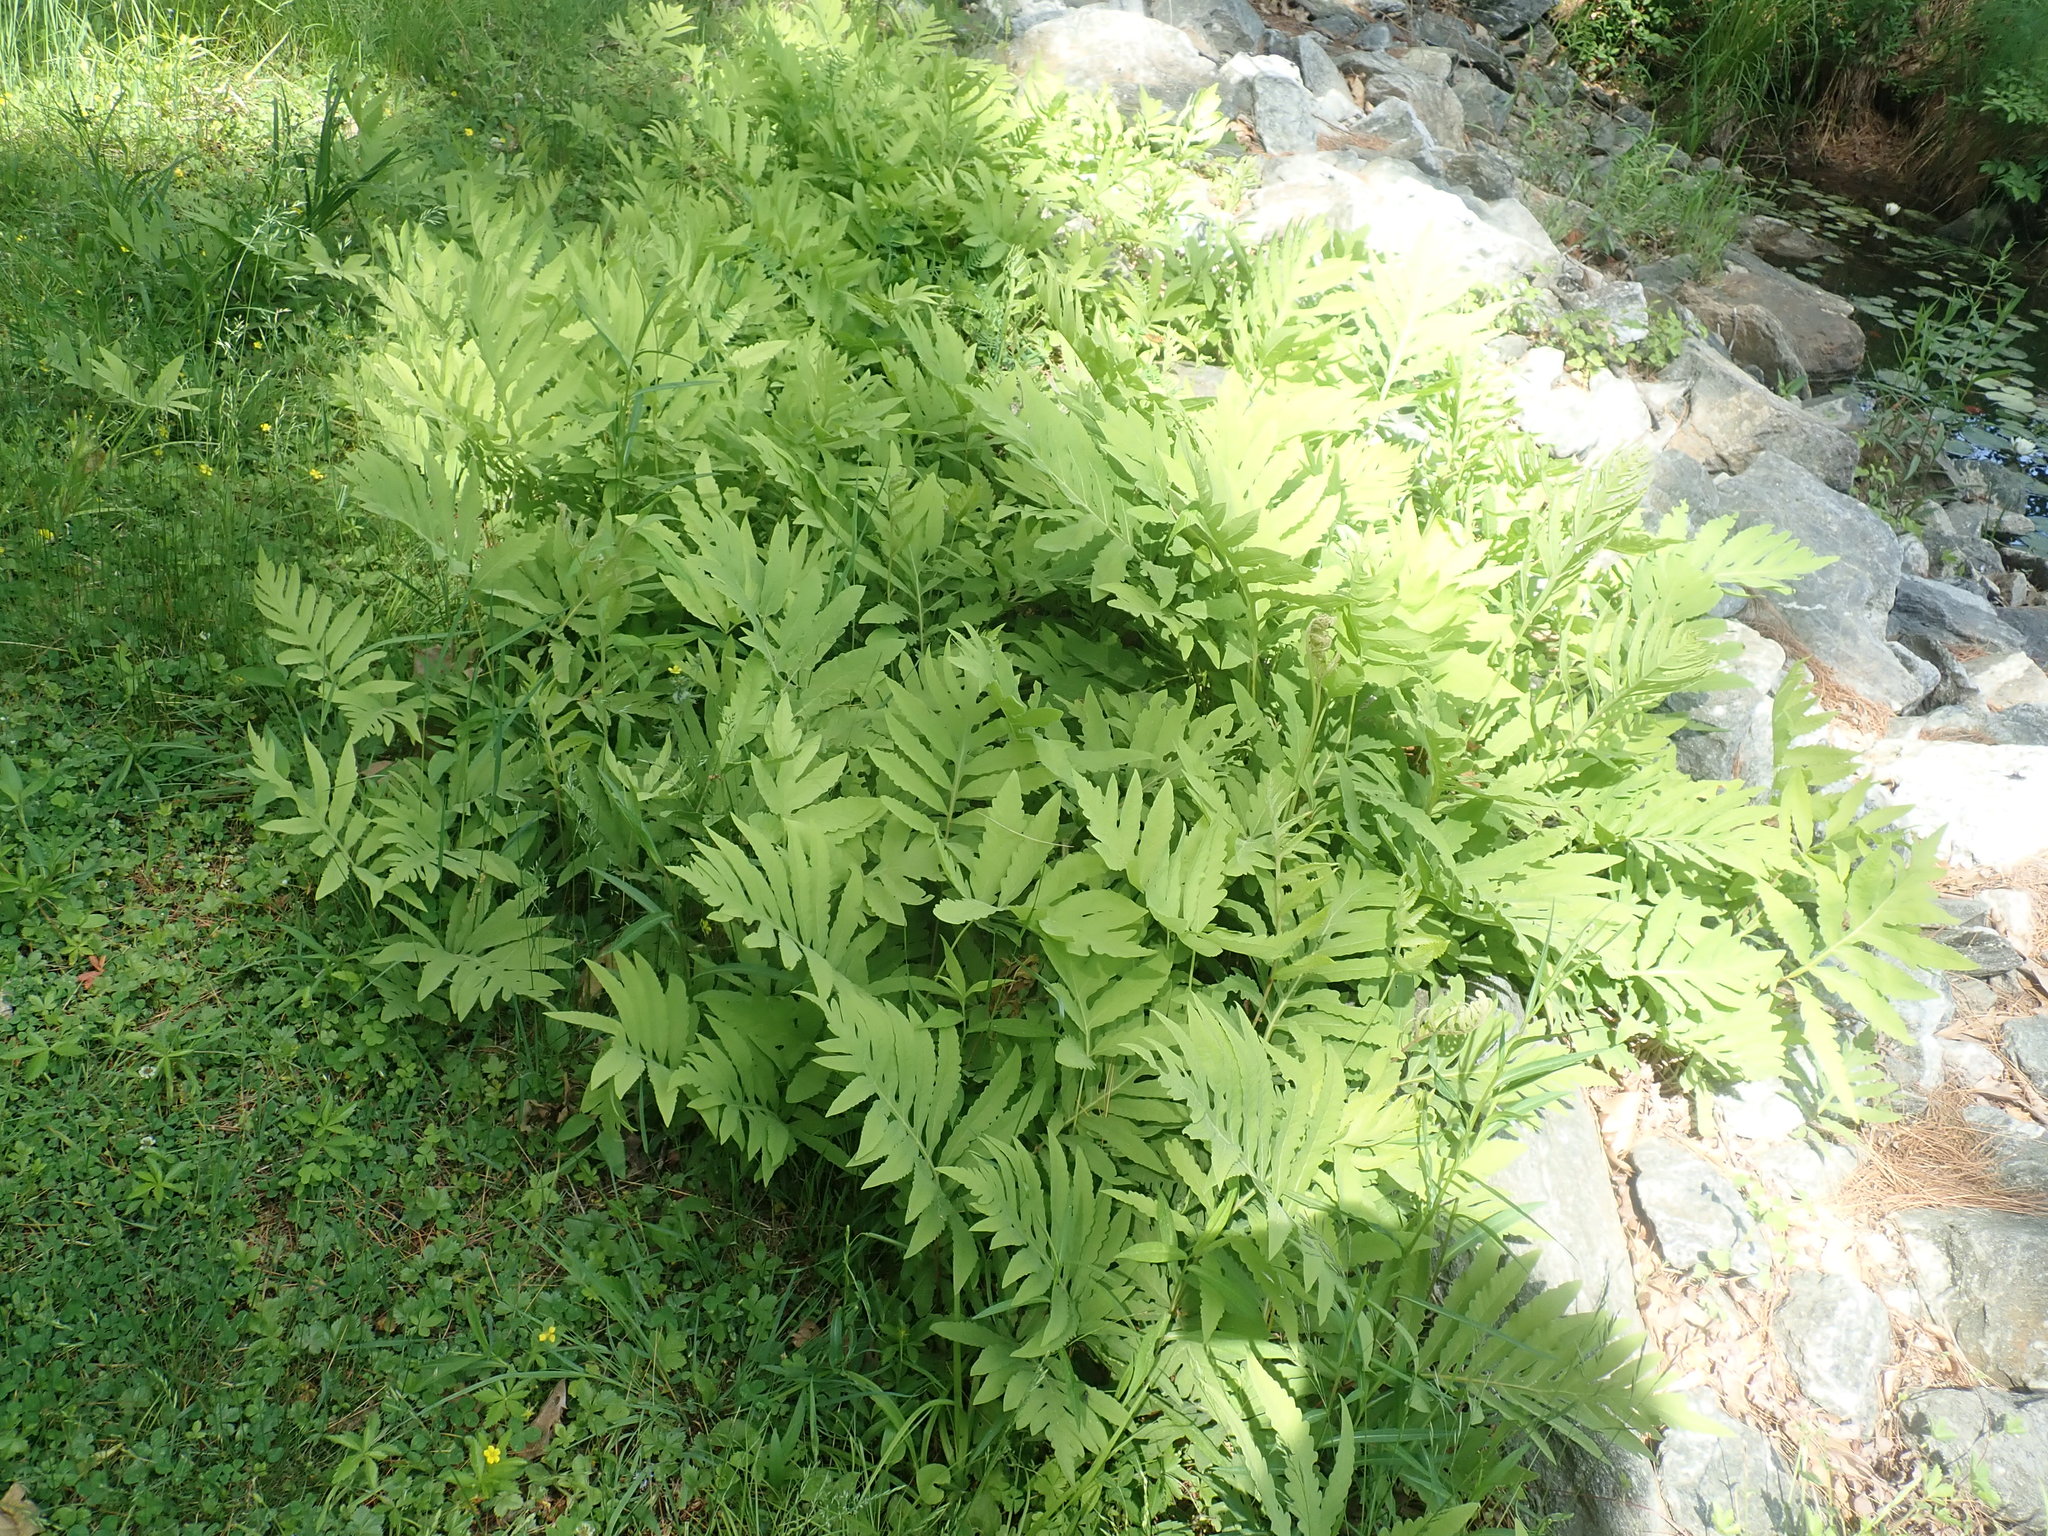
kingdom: Plantae
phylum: Tracheophyta
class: Polypodiopsida
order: Polypodiales
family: Onocleaceae
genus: Onoclea
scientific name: Onoclea sensibilis
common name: Sensitive fern
